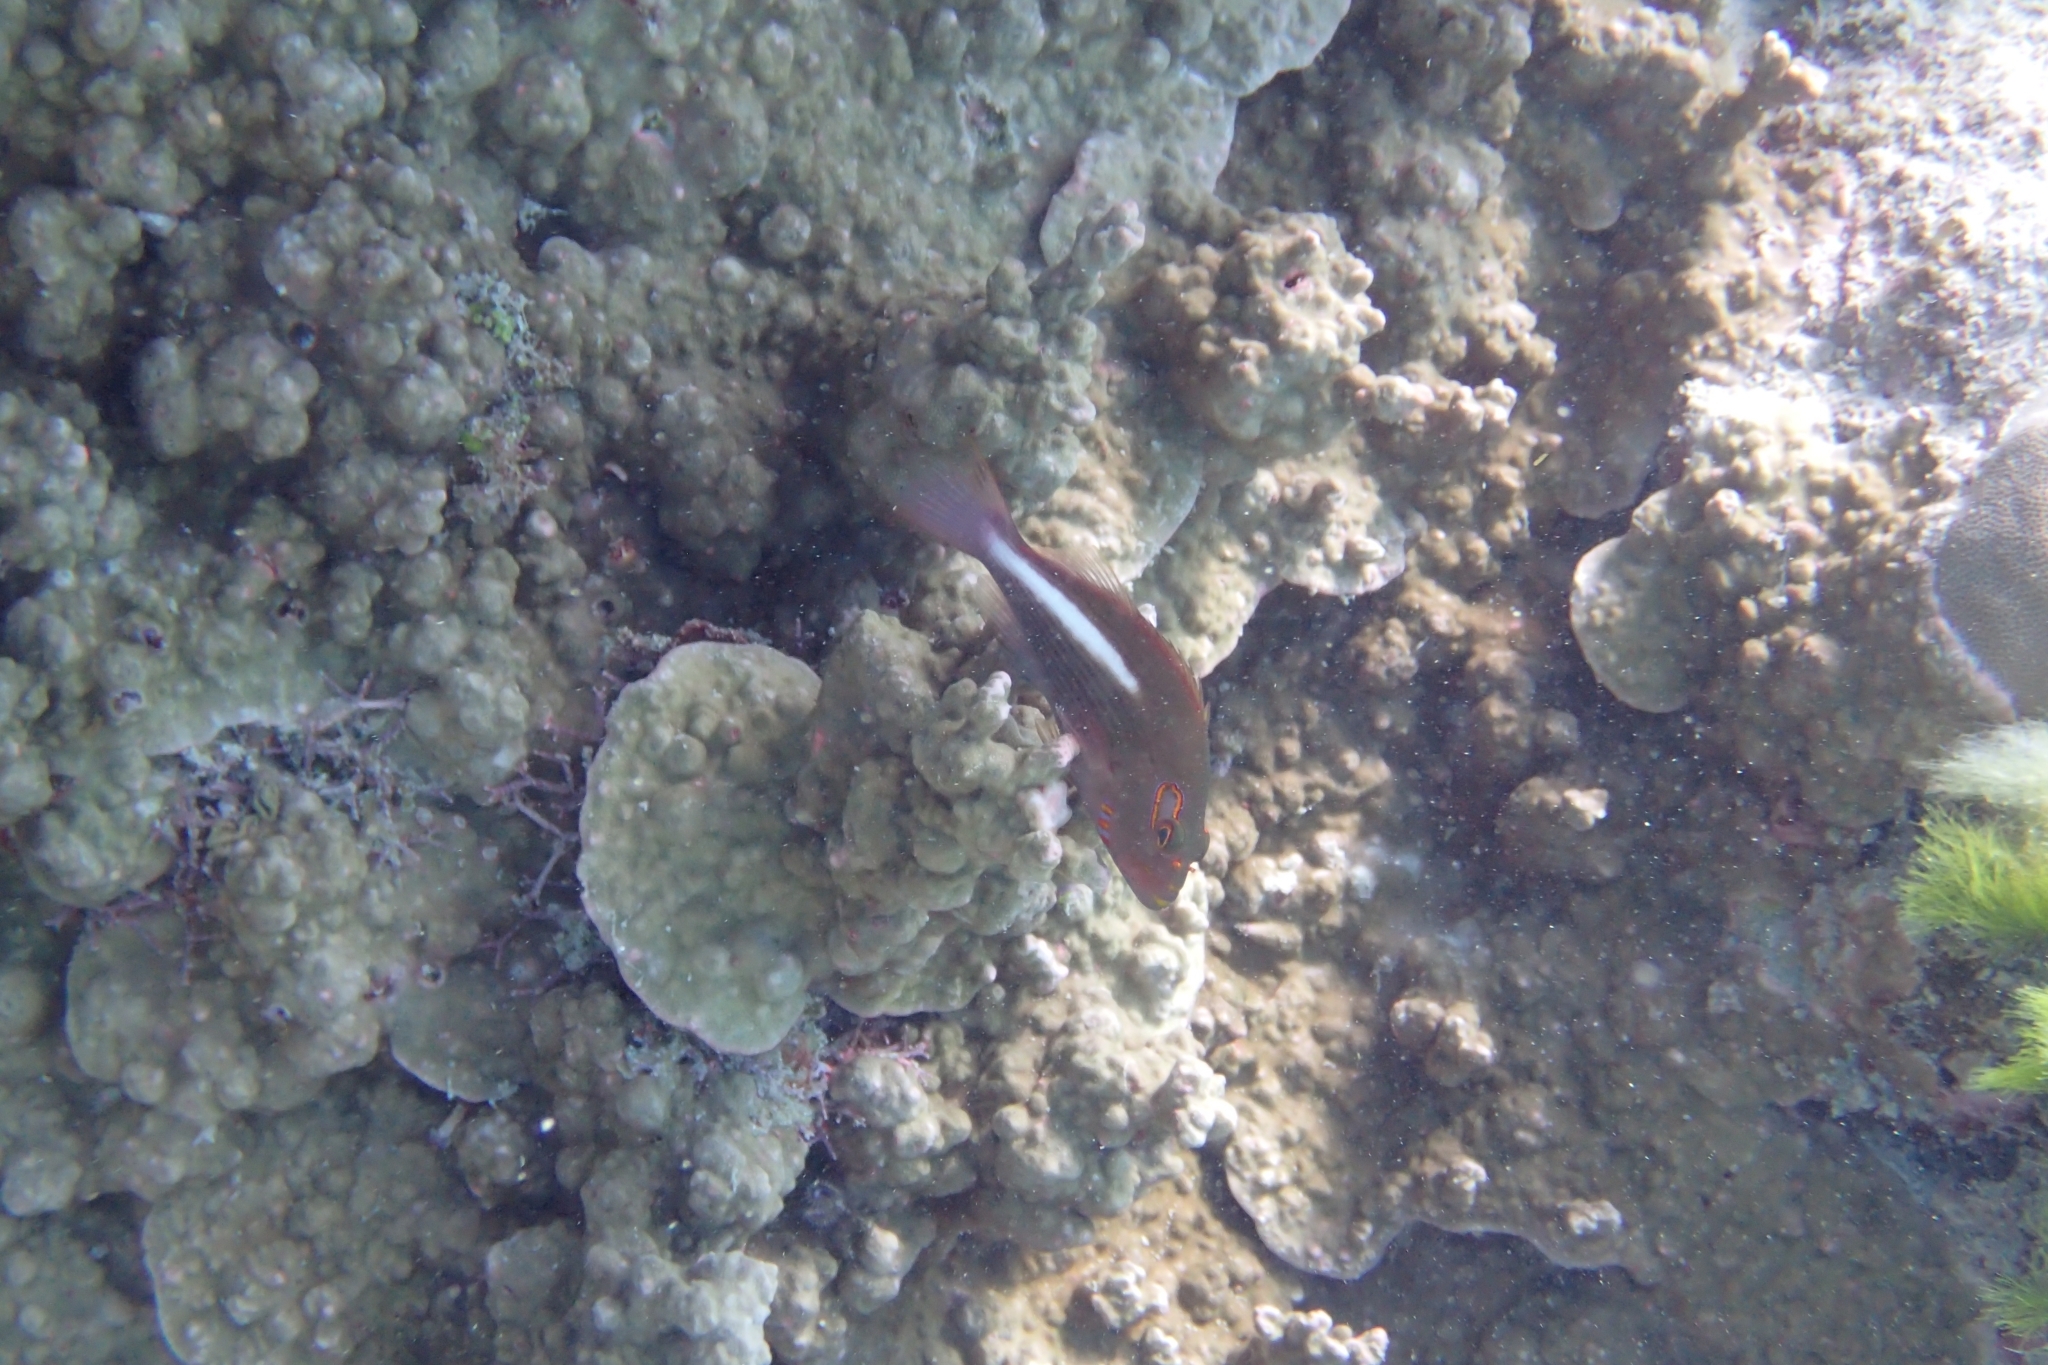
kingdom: Animalia
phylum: Chordata
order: Perciformes
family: Cirrhitidae
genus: Paracirrhites
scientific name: Paracirrhites arcatus
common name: Arc-eye hawkfish
